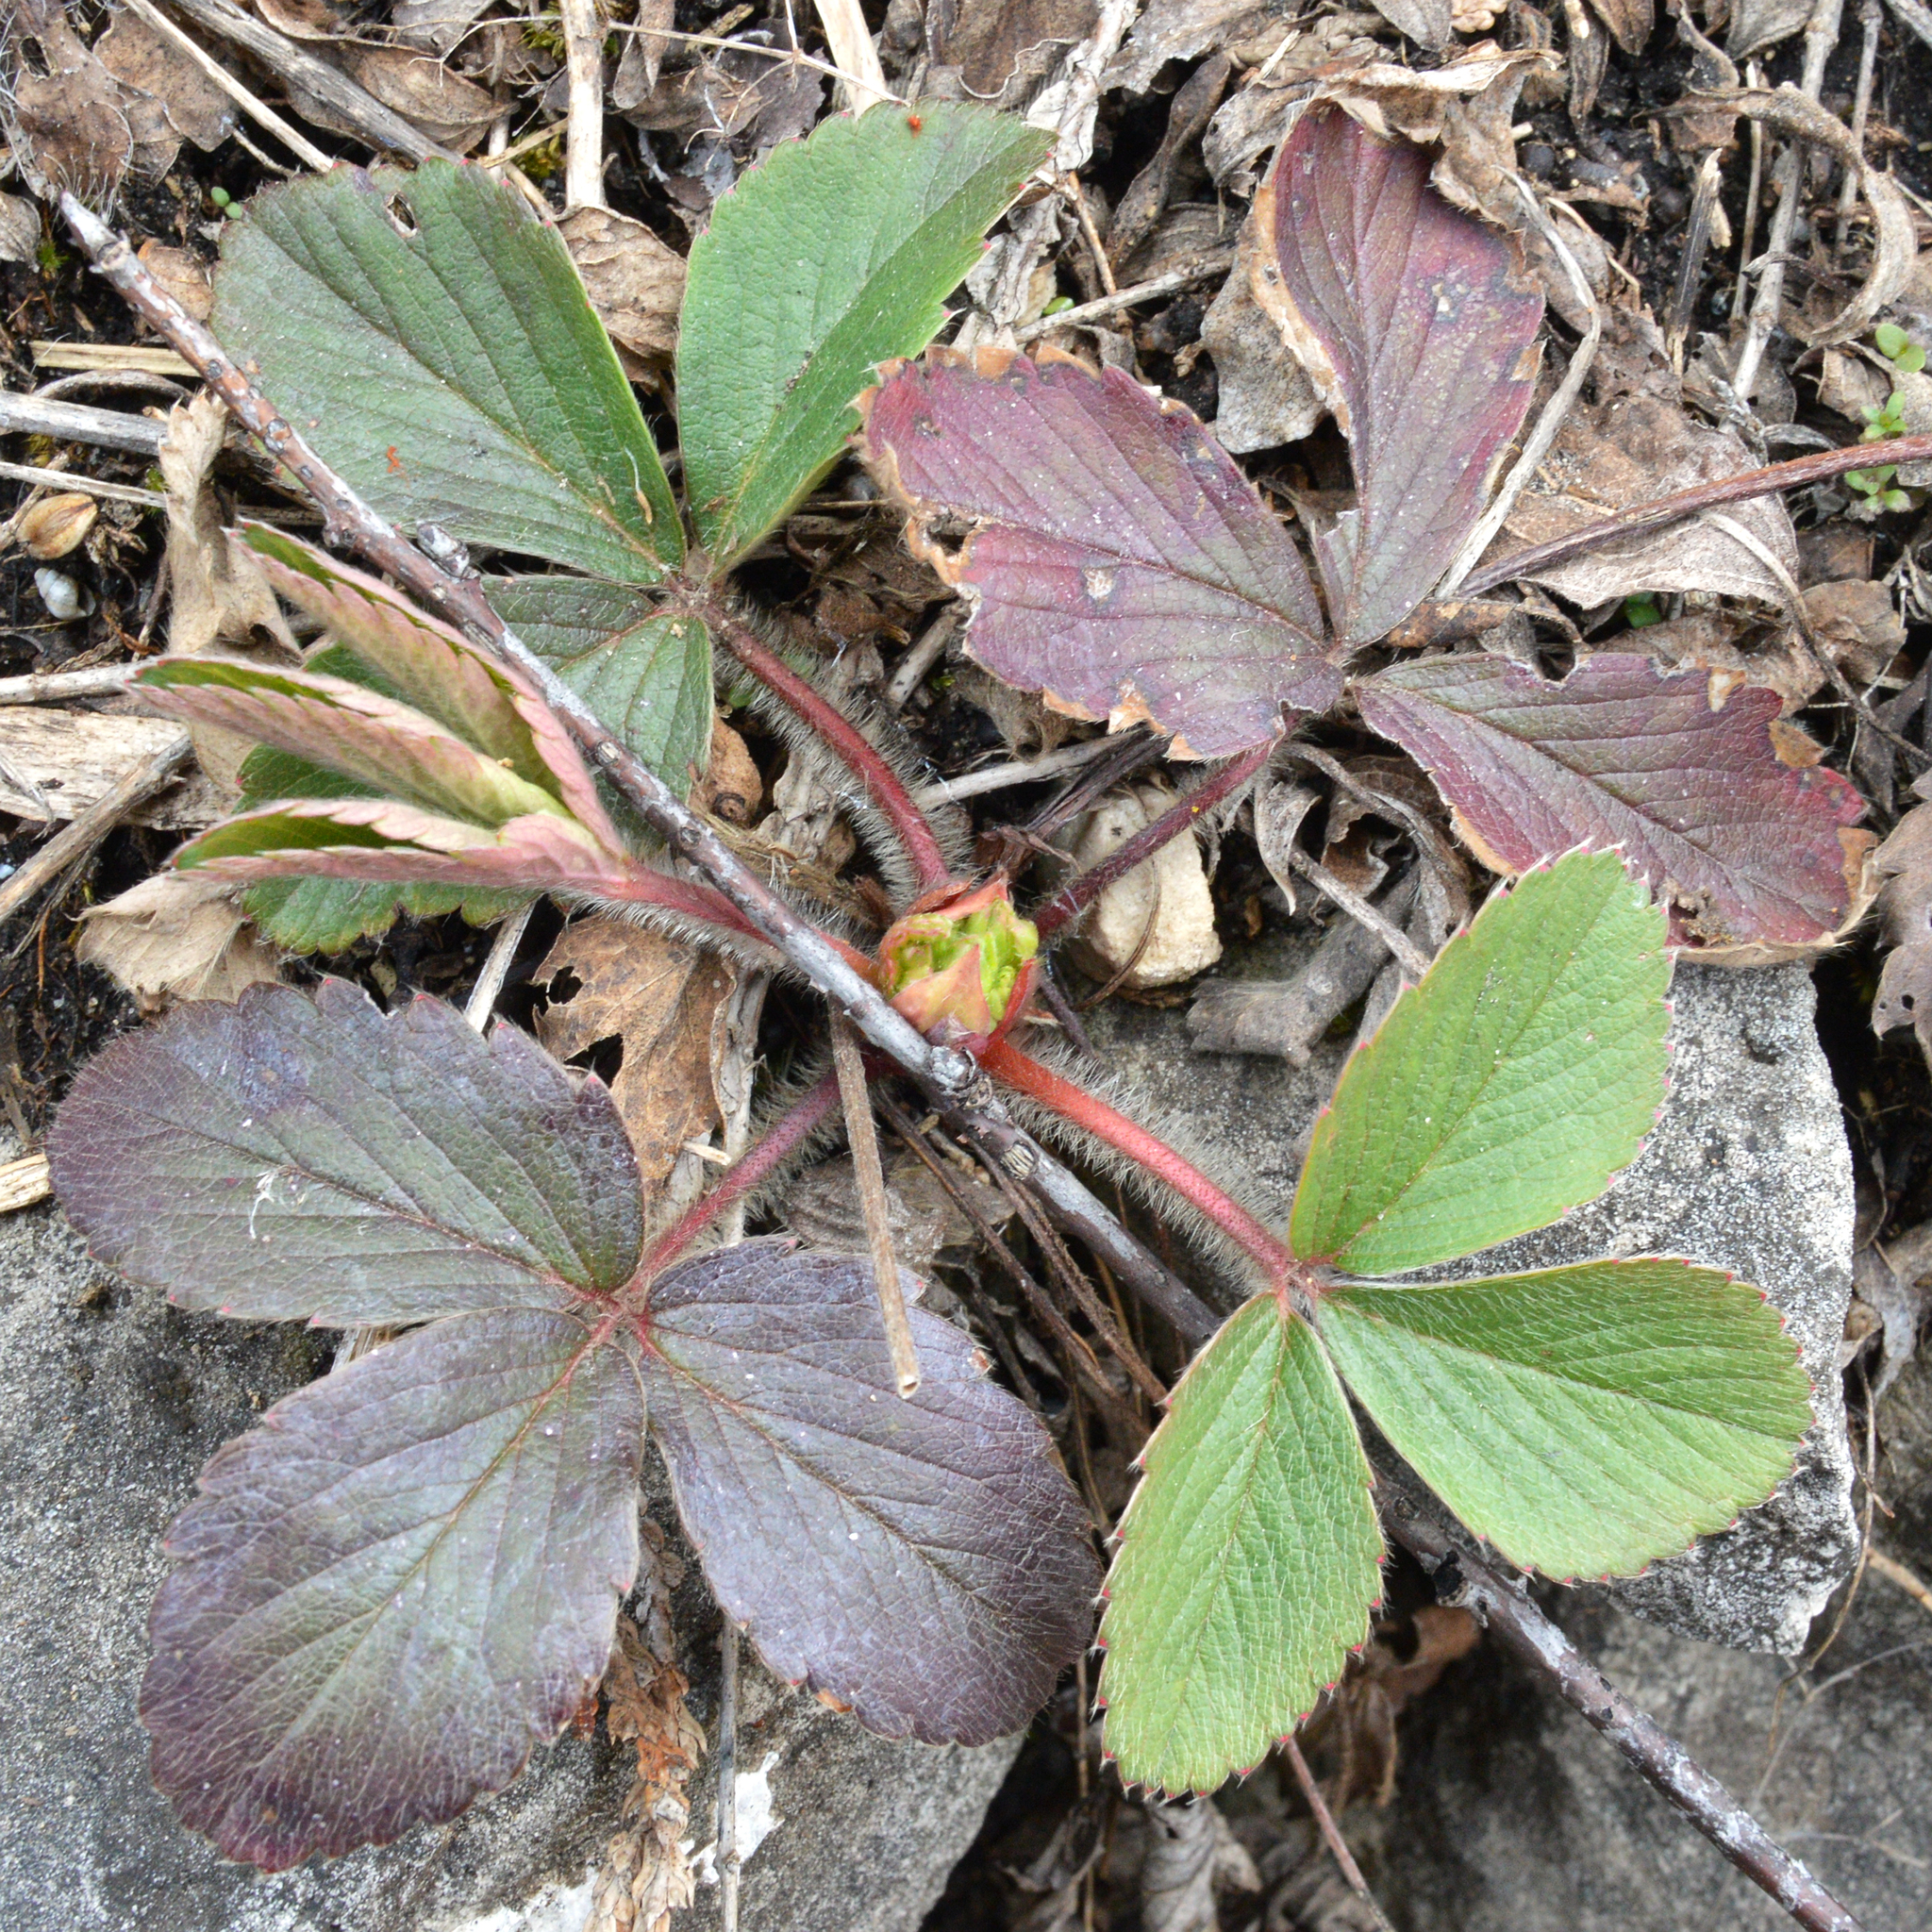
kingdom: Plantae
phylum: Tracheophyta
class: Magnoliopsida
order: Rosales
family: Rosaceae
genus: Fragaria
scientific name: Fragaria virginiana
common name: Thickleaved wild strawberry
